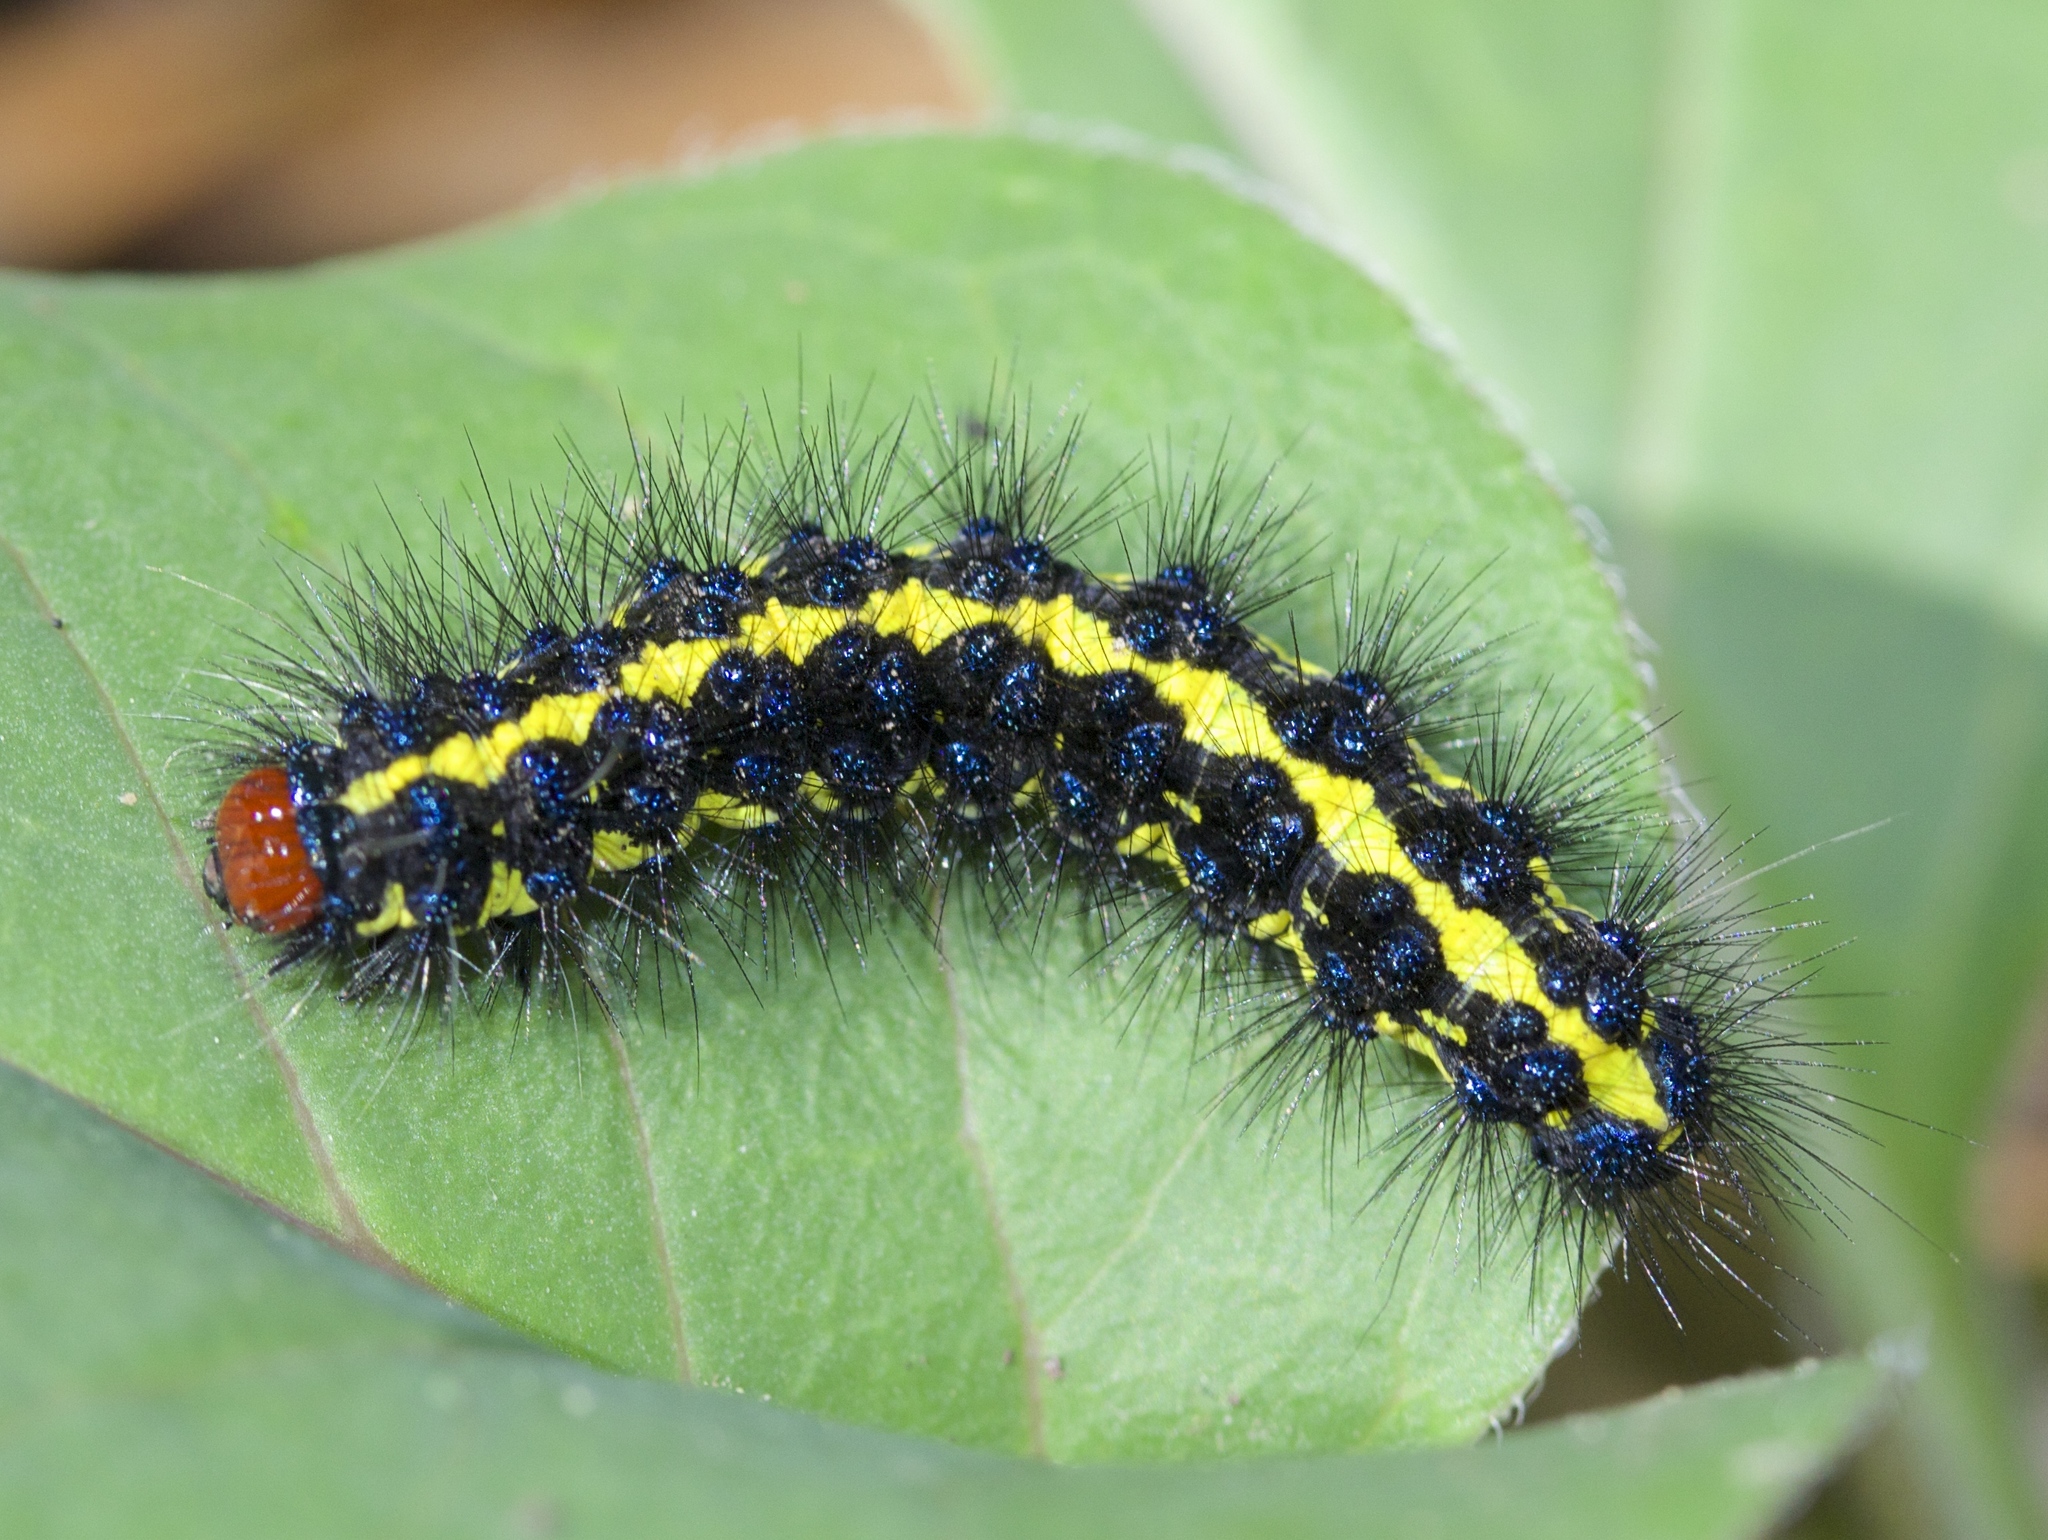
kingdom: Animalia
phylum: Arthropoda
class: Insecta
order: Lepidoptera
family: Erebidae
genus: Gnophaela
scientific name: Gnophaela latipennis
